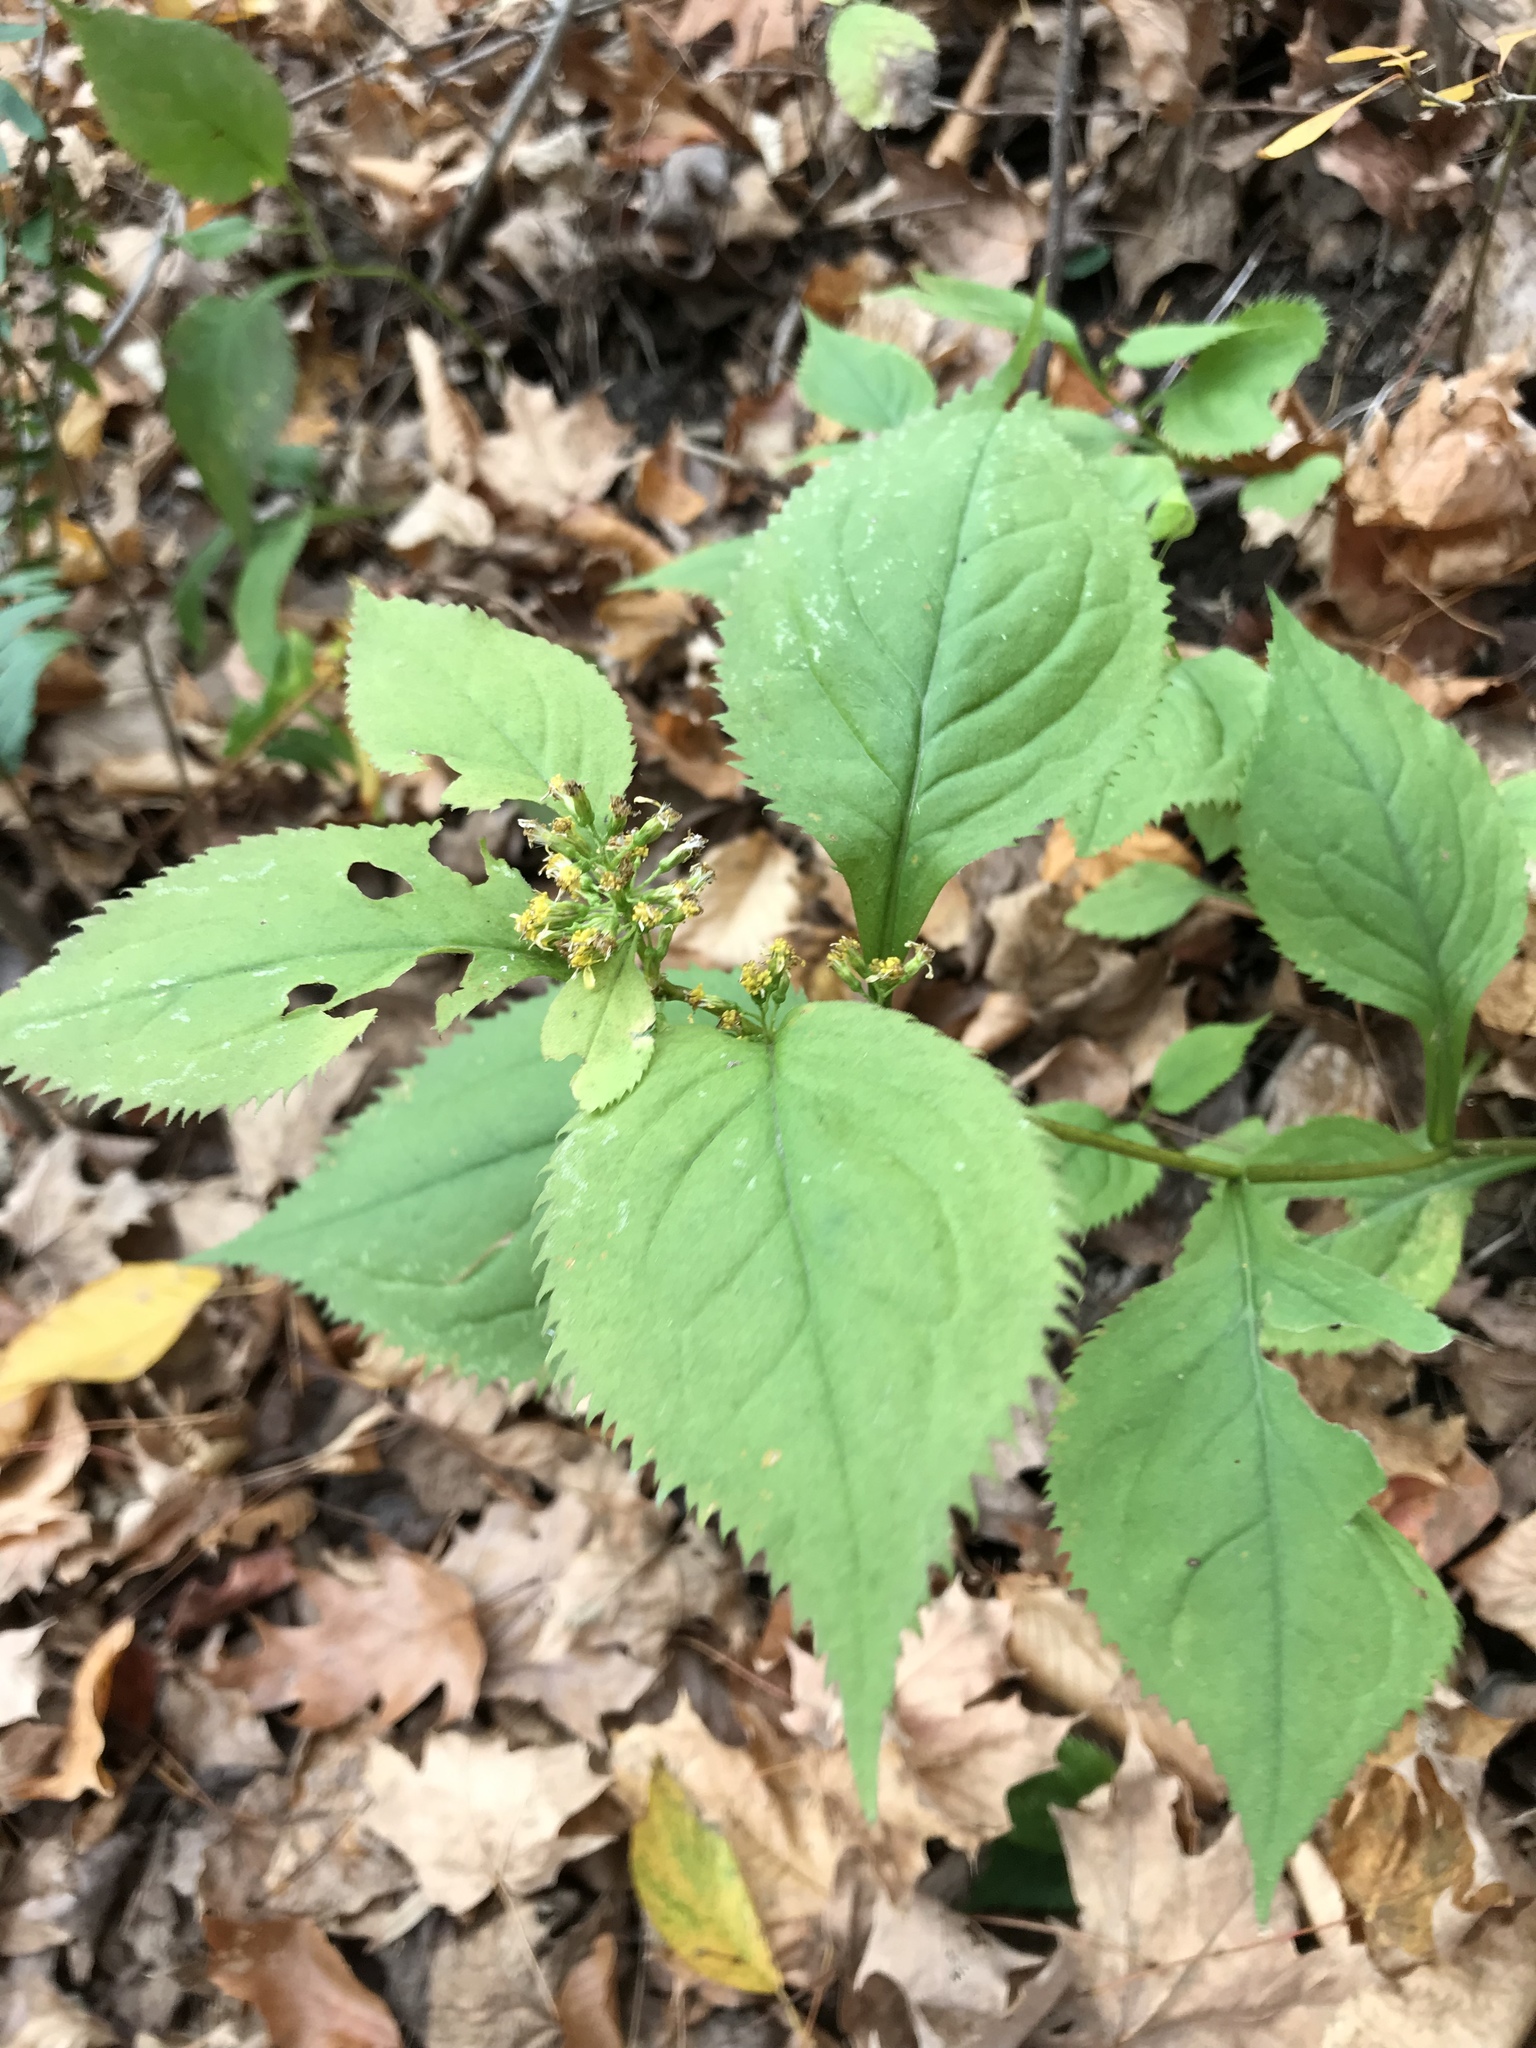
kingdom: Plantae
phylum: Tracheophyta
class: Magnoliopsida
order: Asterales
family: Asteraceae
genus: Solidago
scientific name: Solidago flexicaulis
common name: Zig-zag goldenrod
